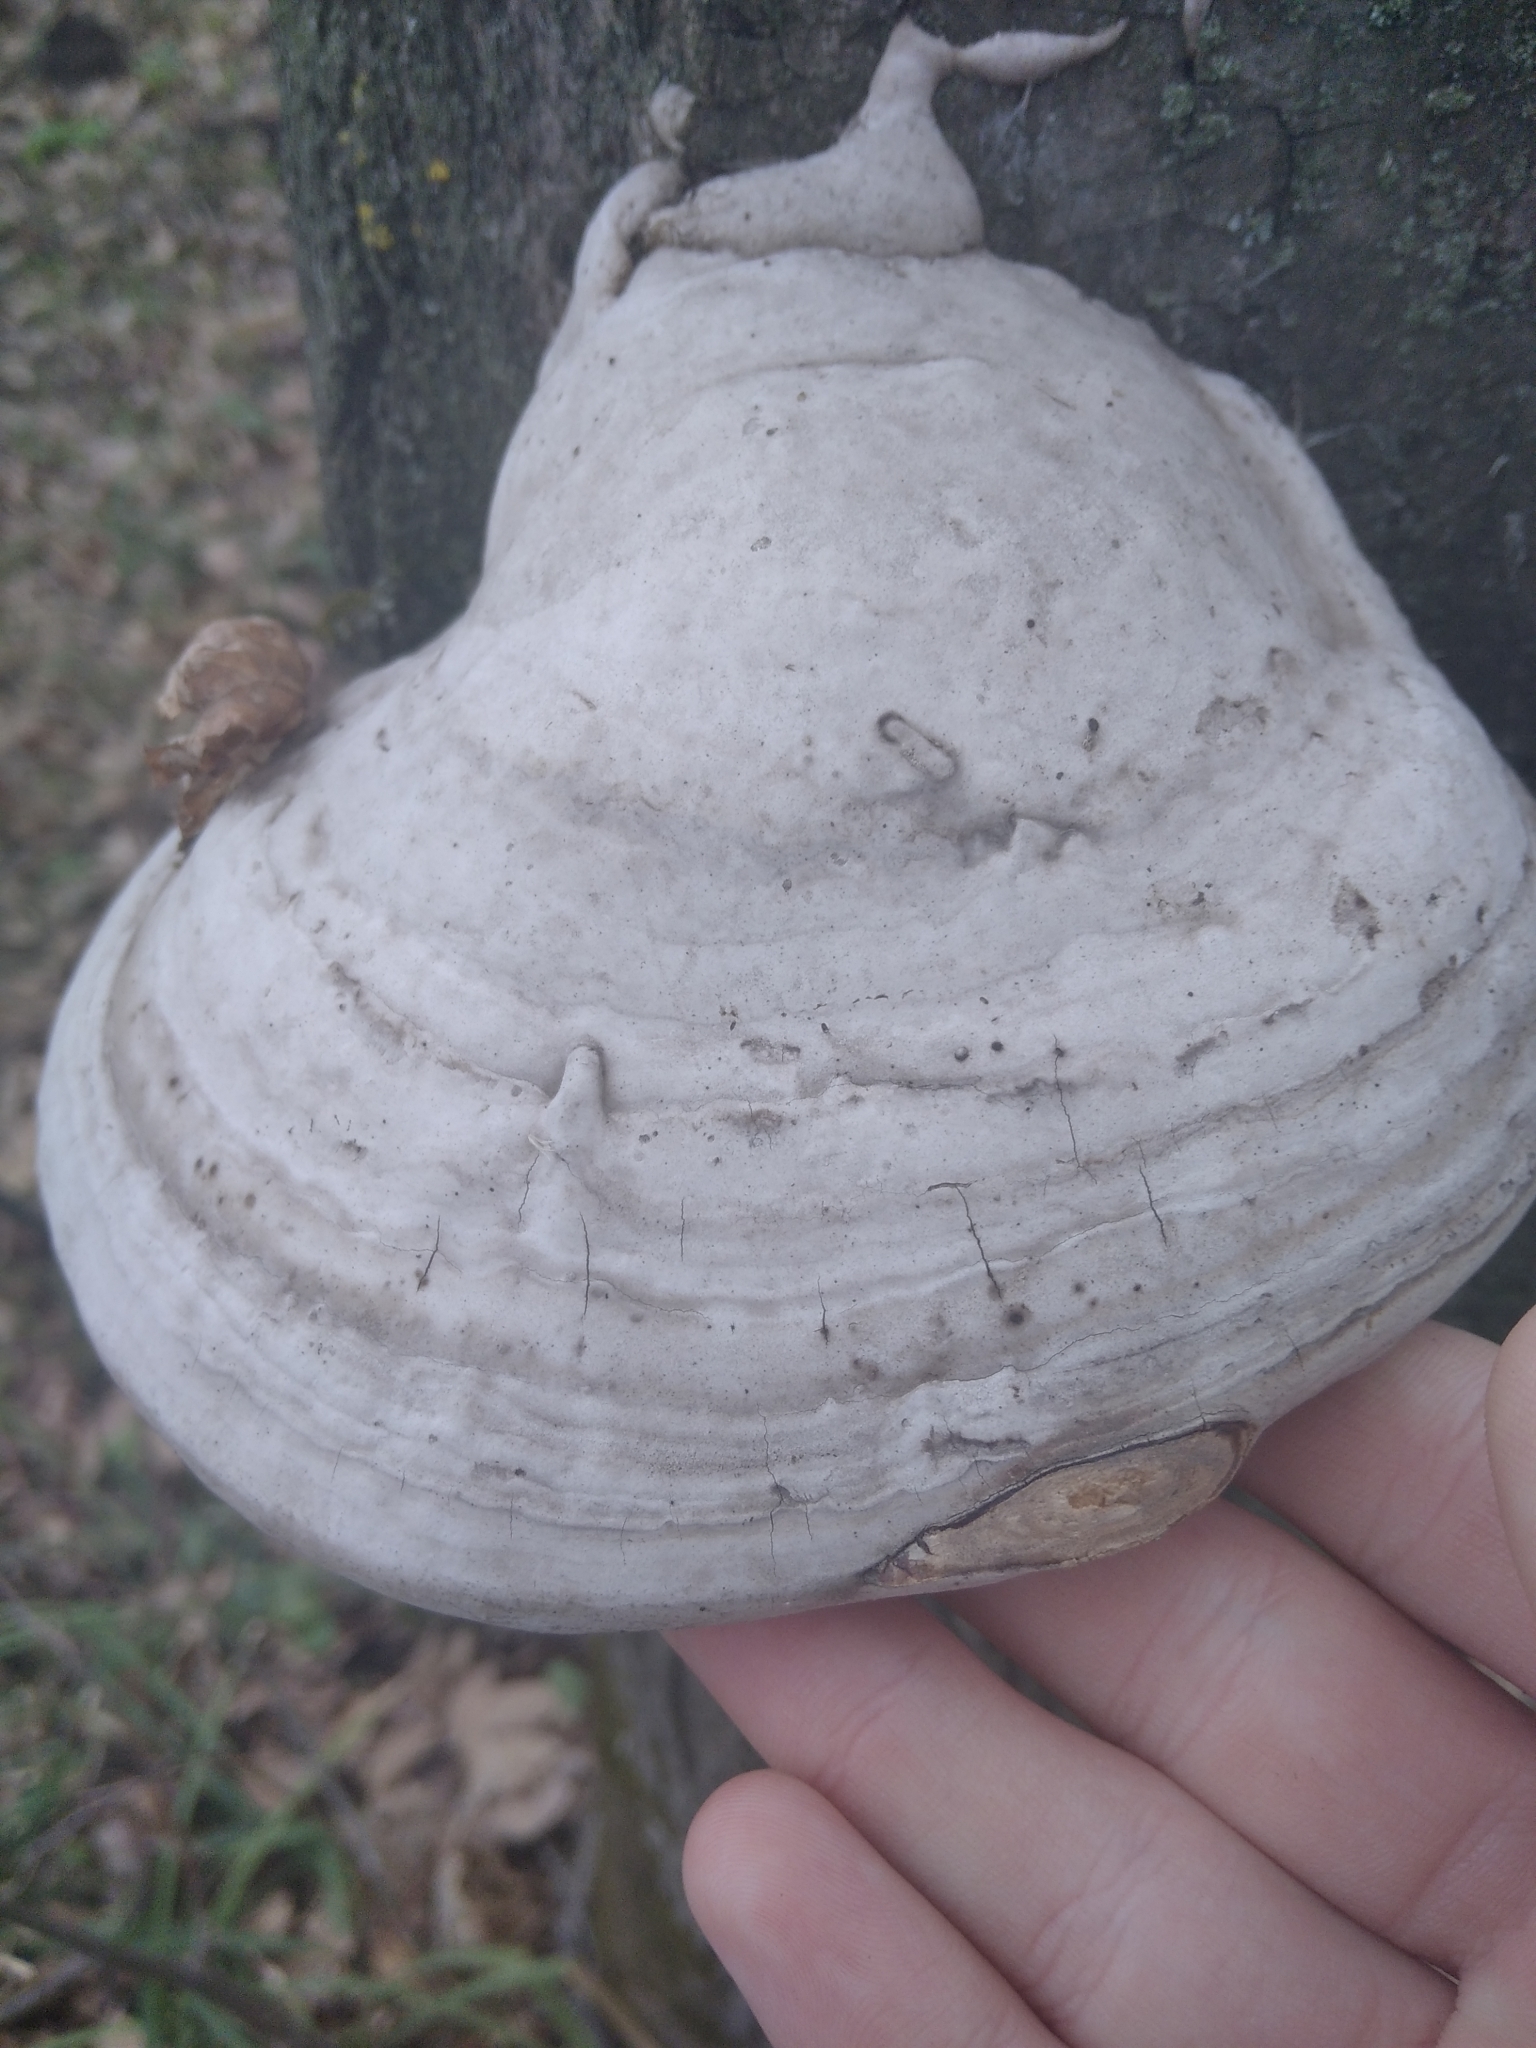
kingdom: Fungi
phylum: Basidiomycota
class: Agaricomycetes
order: Polyporales
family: Polyporaceae
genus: Fomes
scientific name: Fomes fomentarius
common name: Hoof fungus
